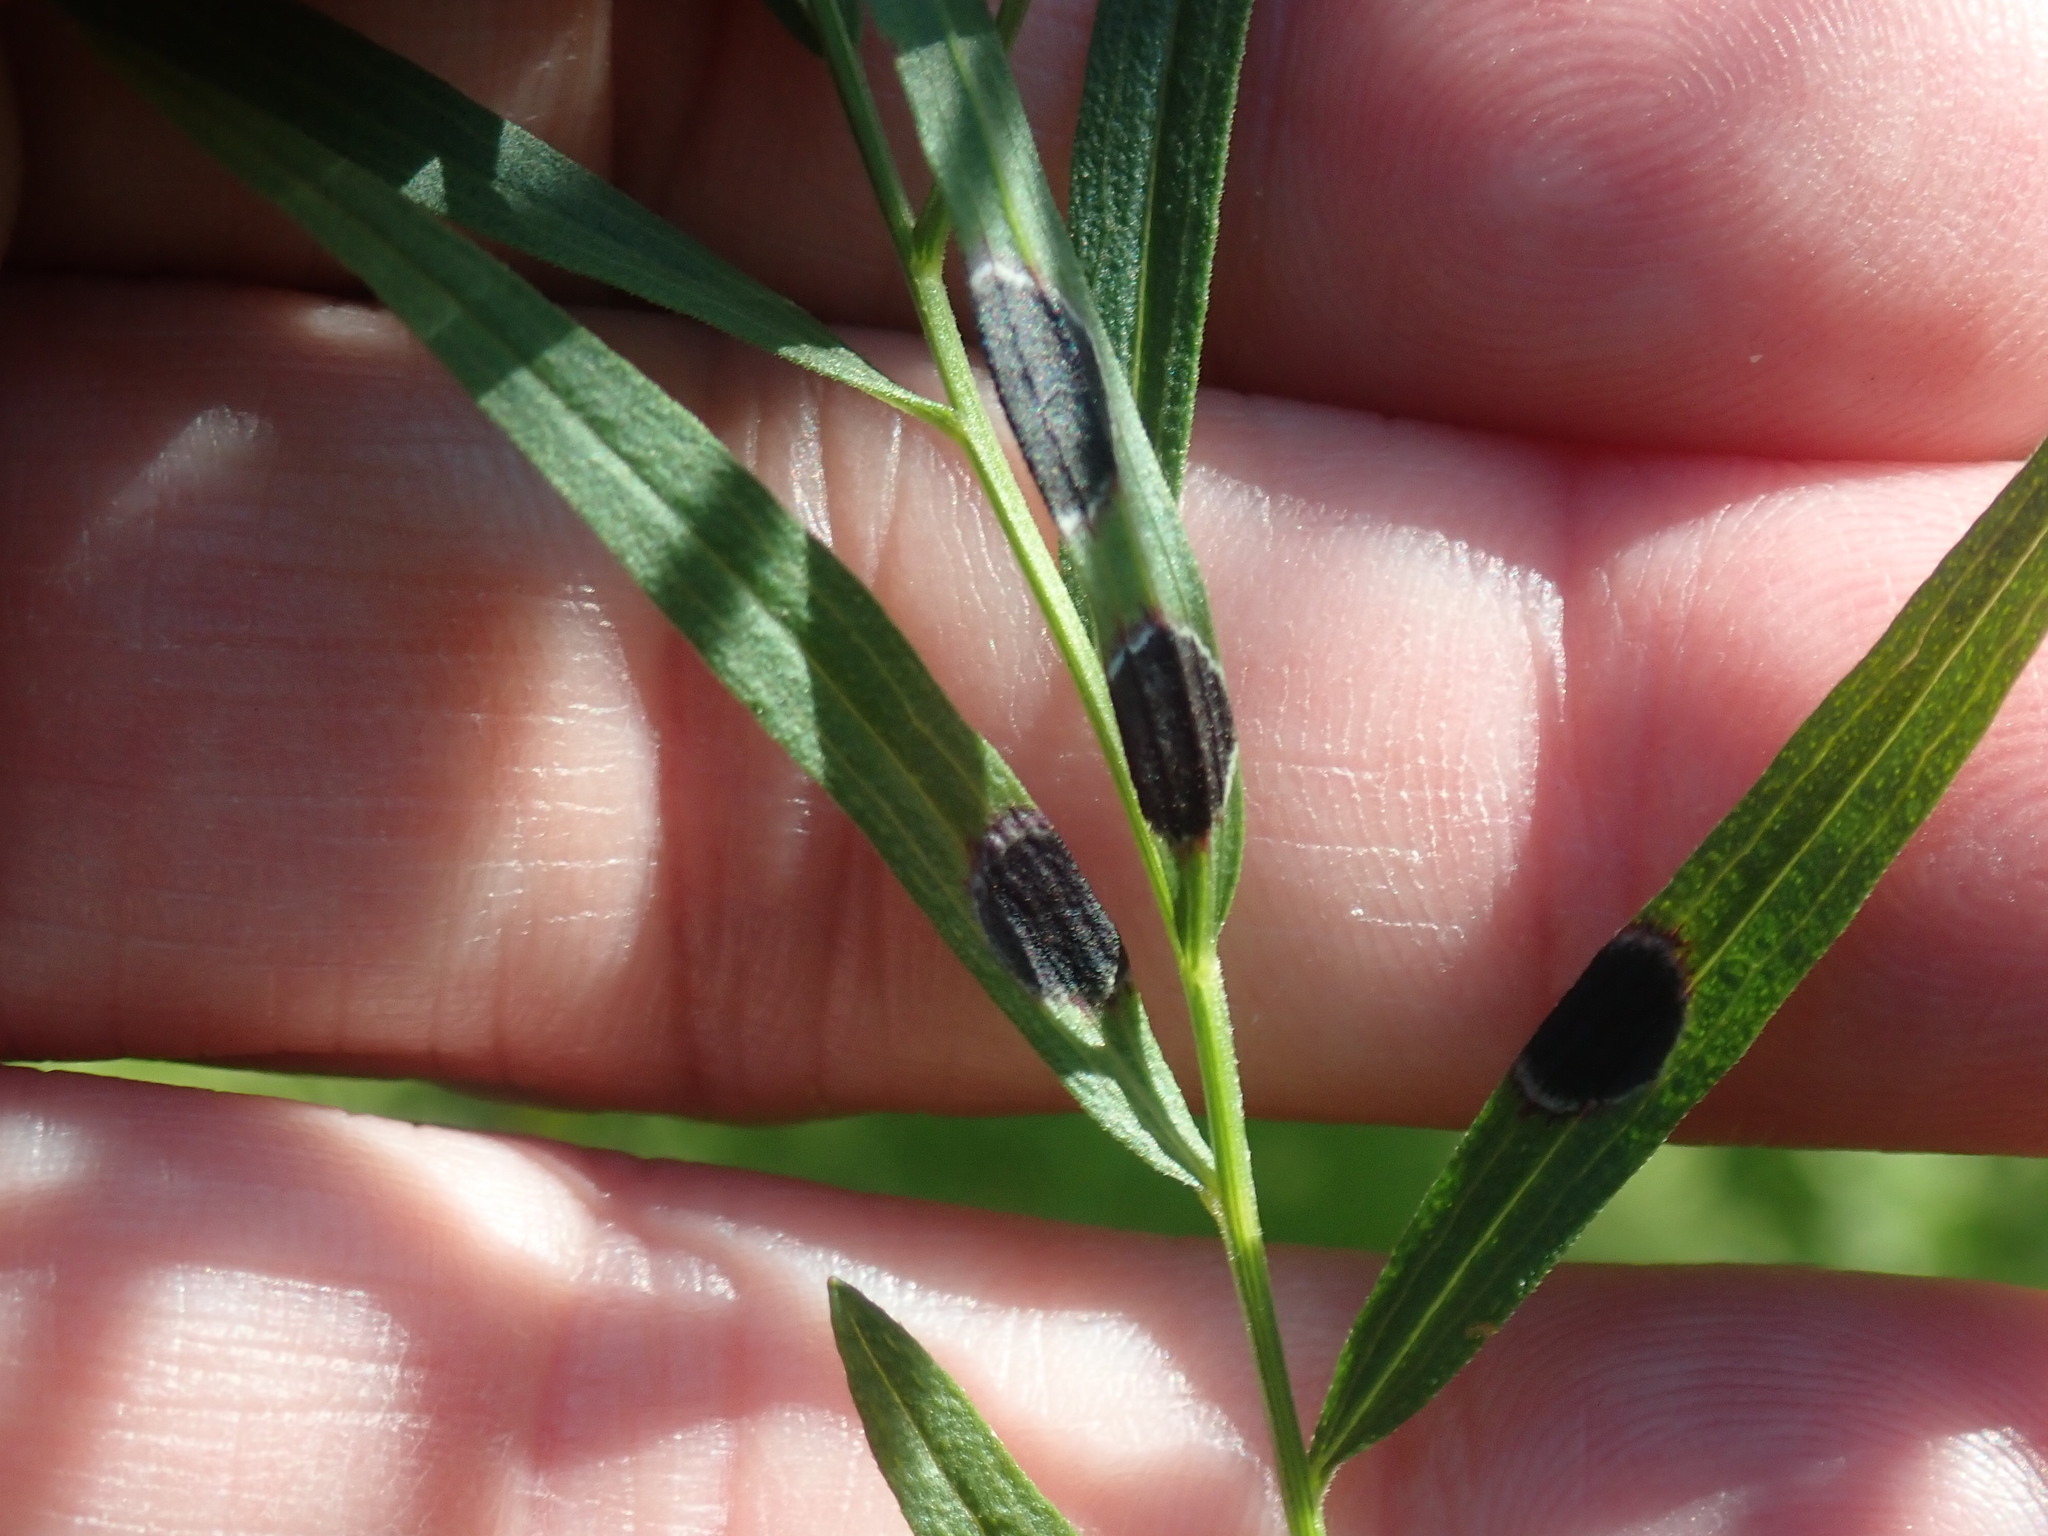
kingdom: Animalia
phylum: Arthropoda
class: Insecta
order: Diptera
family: Cecidomyiidae
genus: Asteromyia
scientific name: Asteromyia euthamiae
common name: Euthamia leaf gall midge
